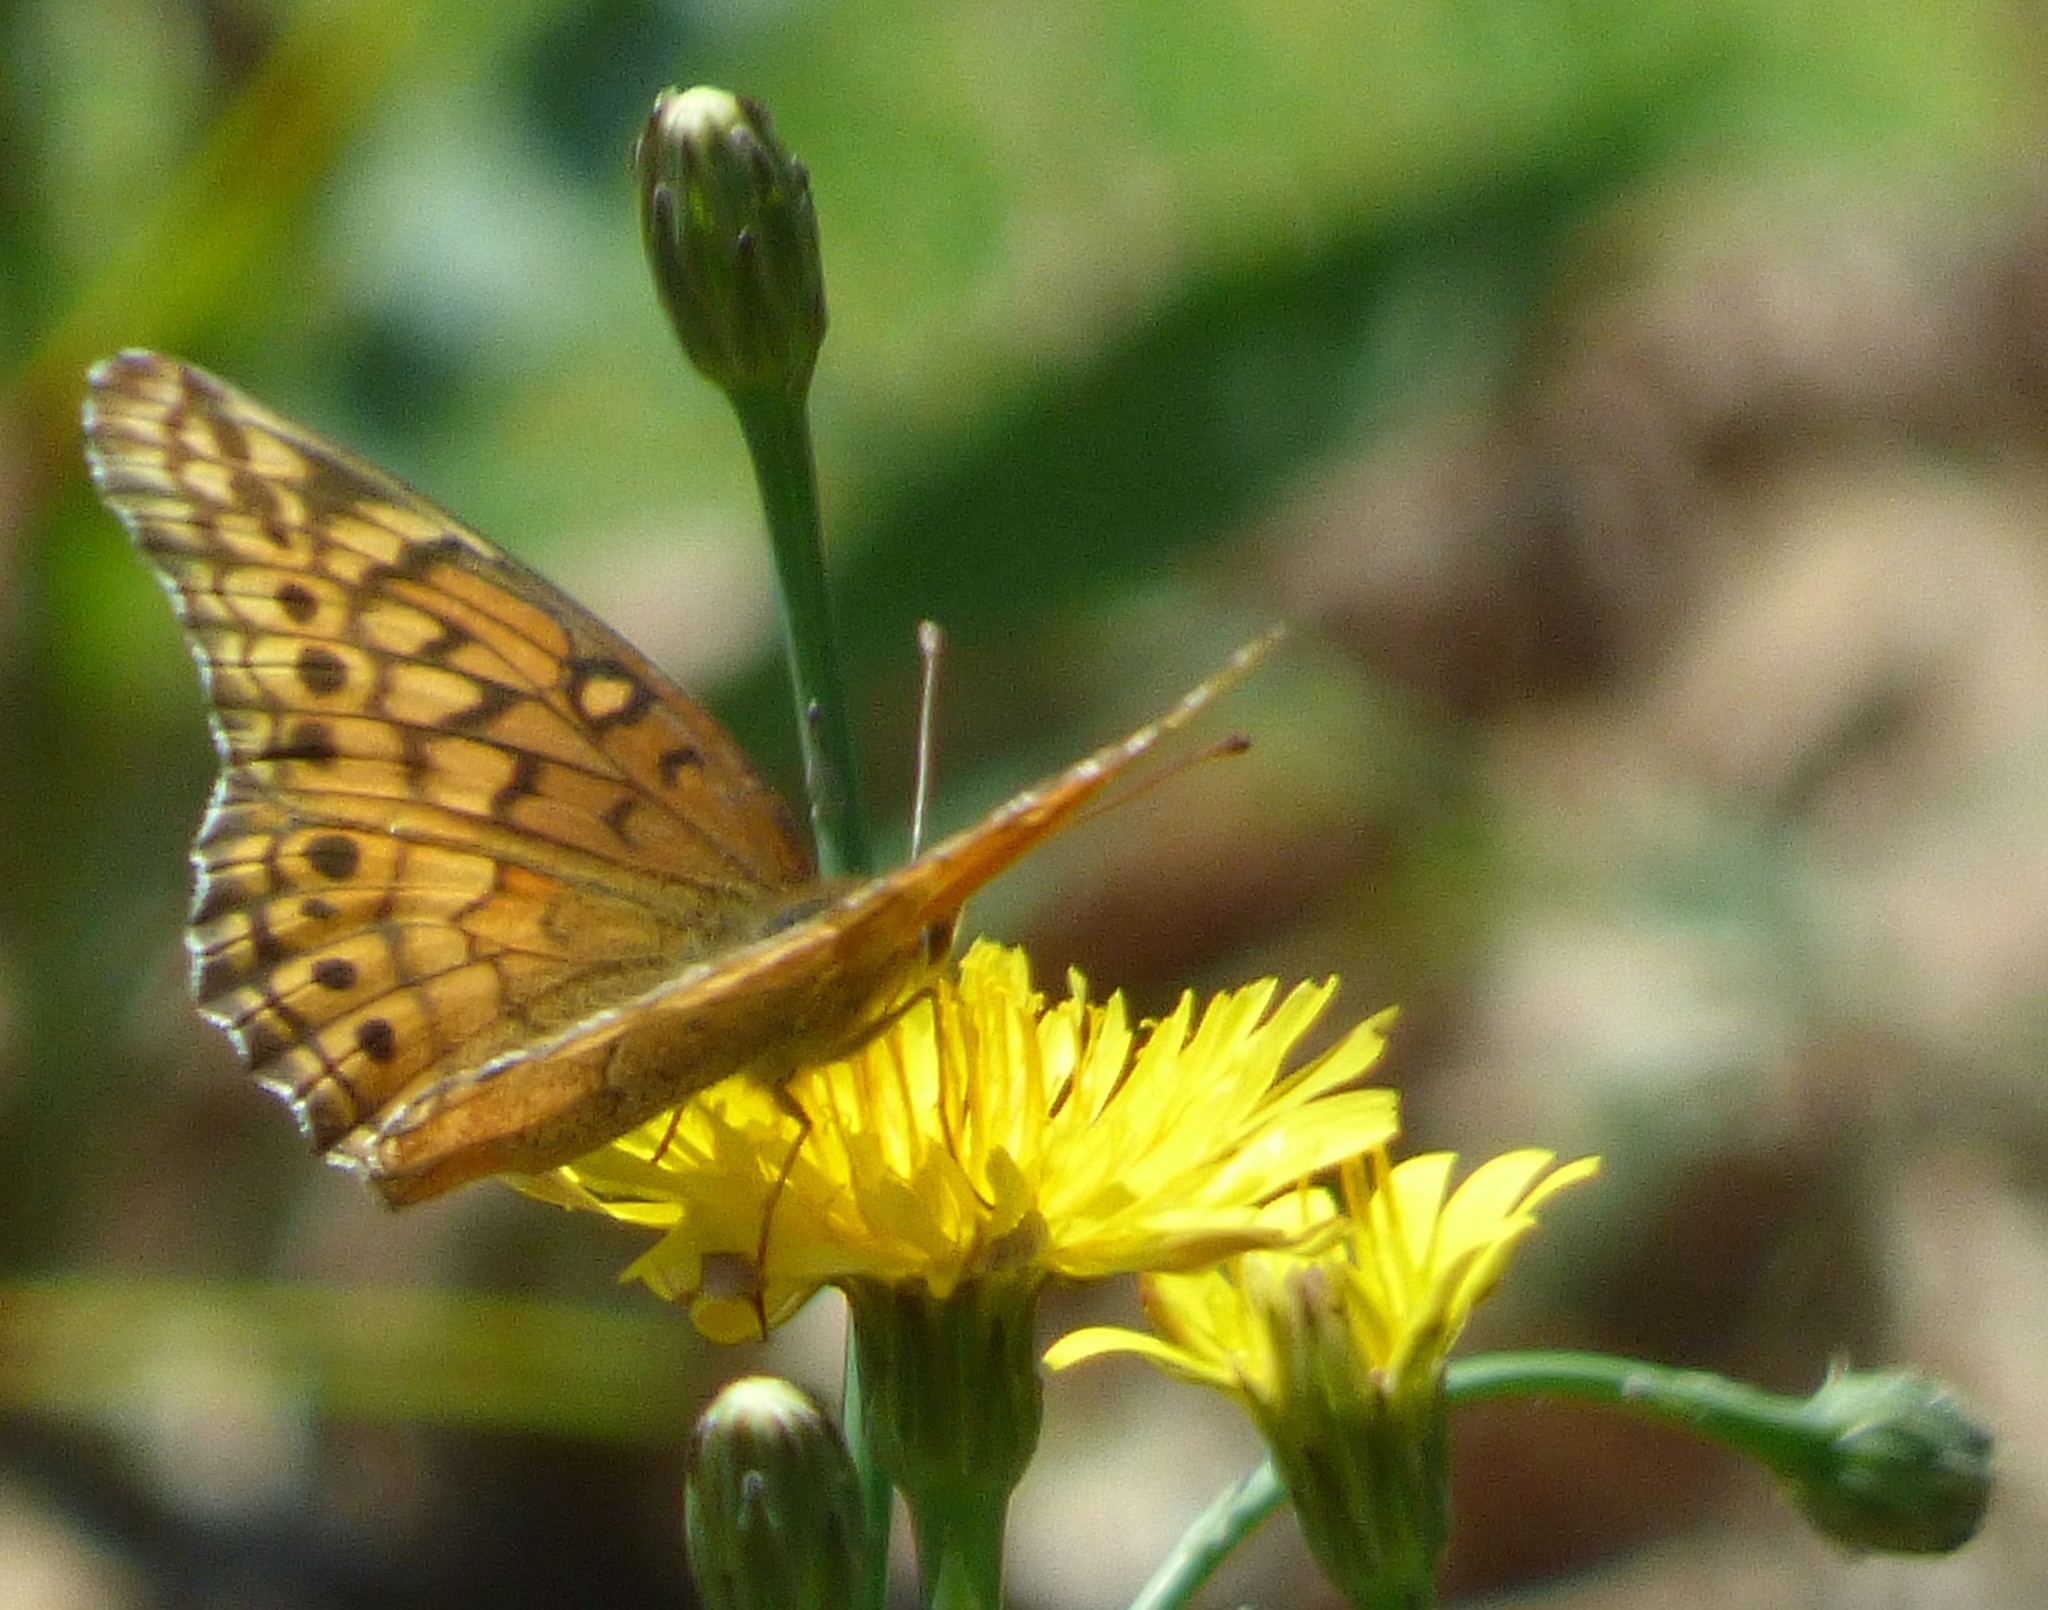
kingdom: Animalia
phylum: Arthropoda
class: Insecta
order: Lepidoptera
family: Nymphalidae
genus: Euptoieta
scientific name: Euptoieta claudia
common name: Variegated fritillary
